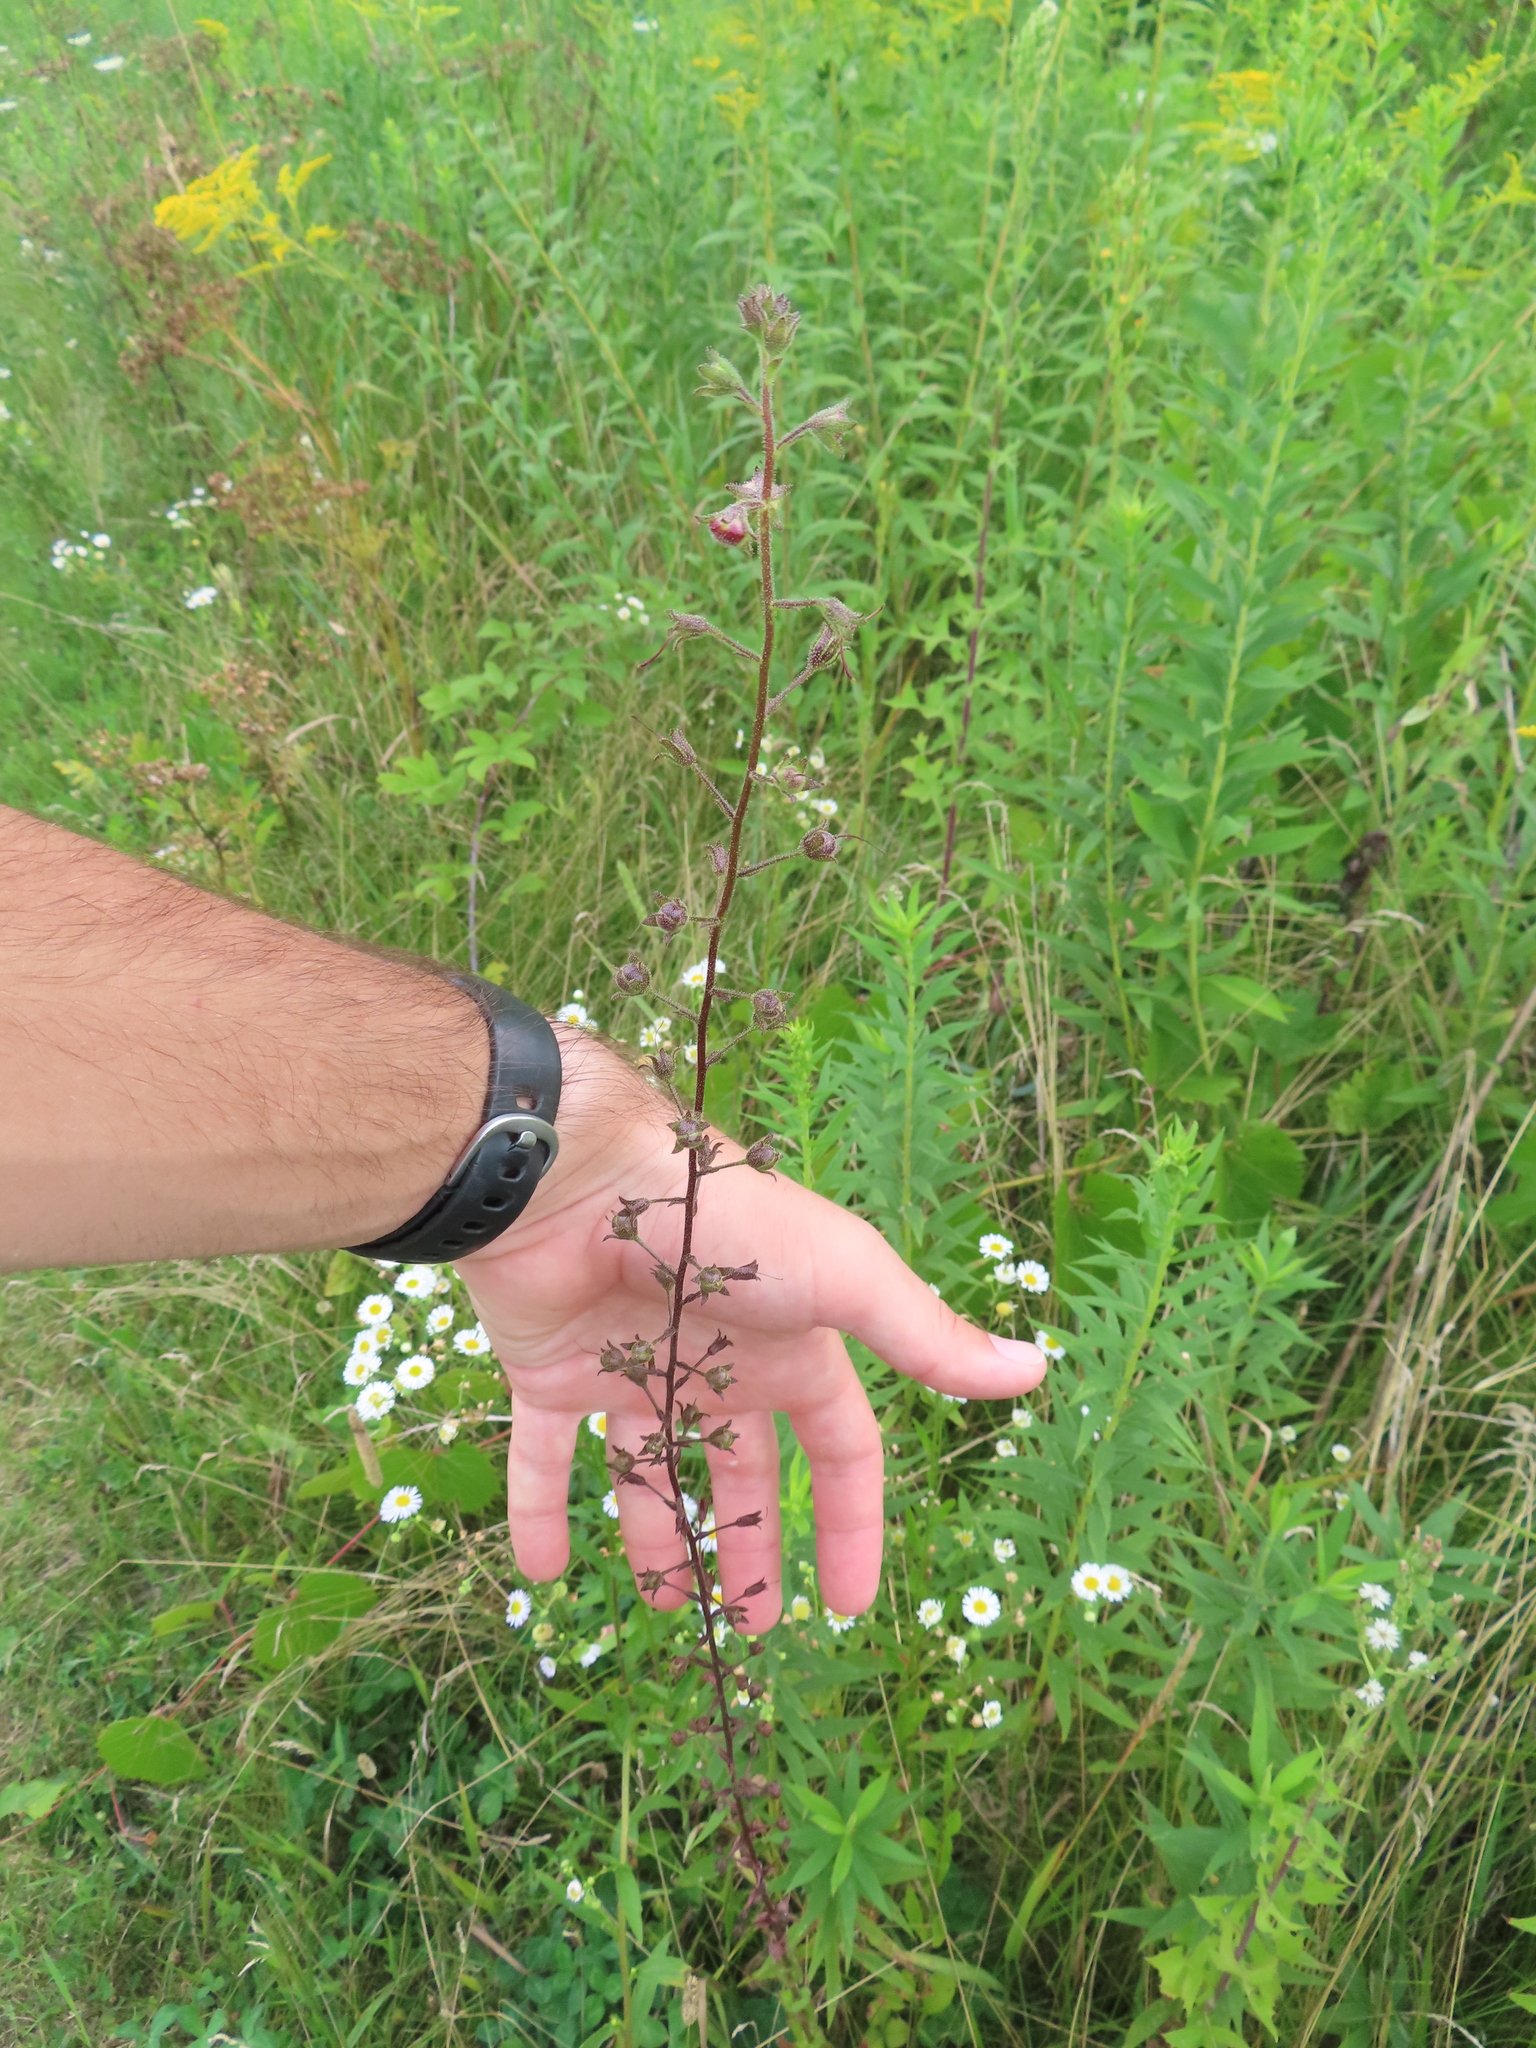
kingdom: Plantae
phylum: Tracheophyta
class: Magnoliopsida
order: Lamiales
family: Scrophulariaceae
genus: Verbascum
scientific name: Verbascum blattaria
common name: Moth mullein
